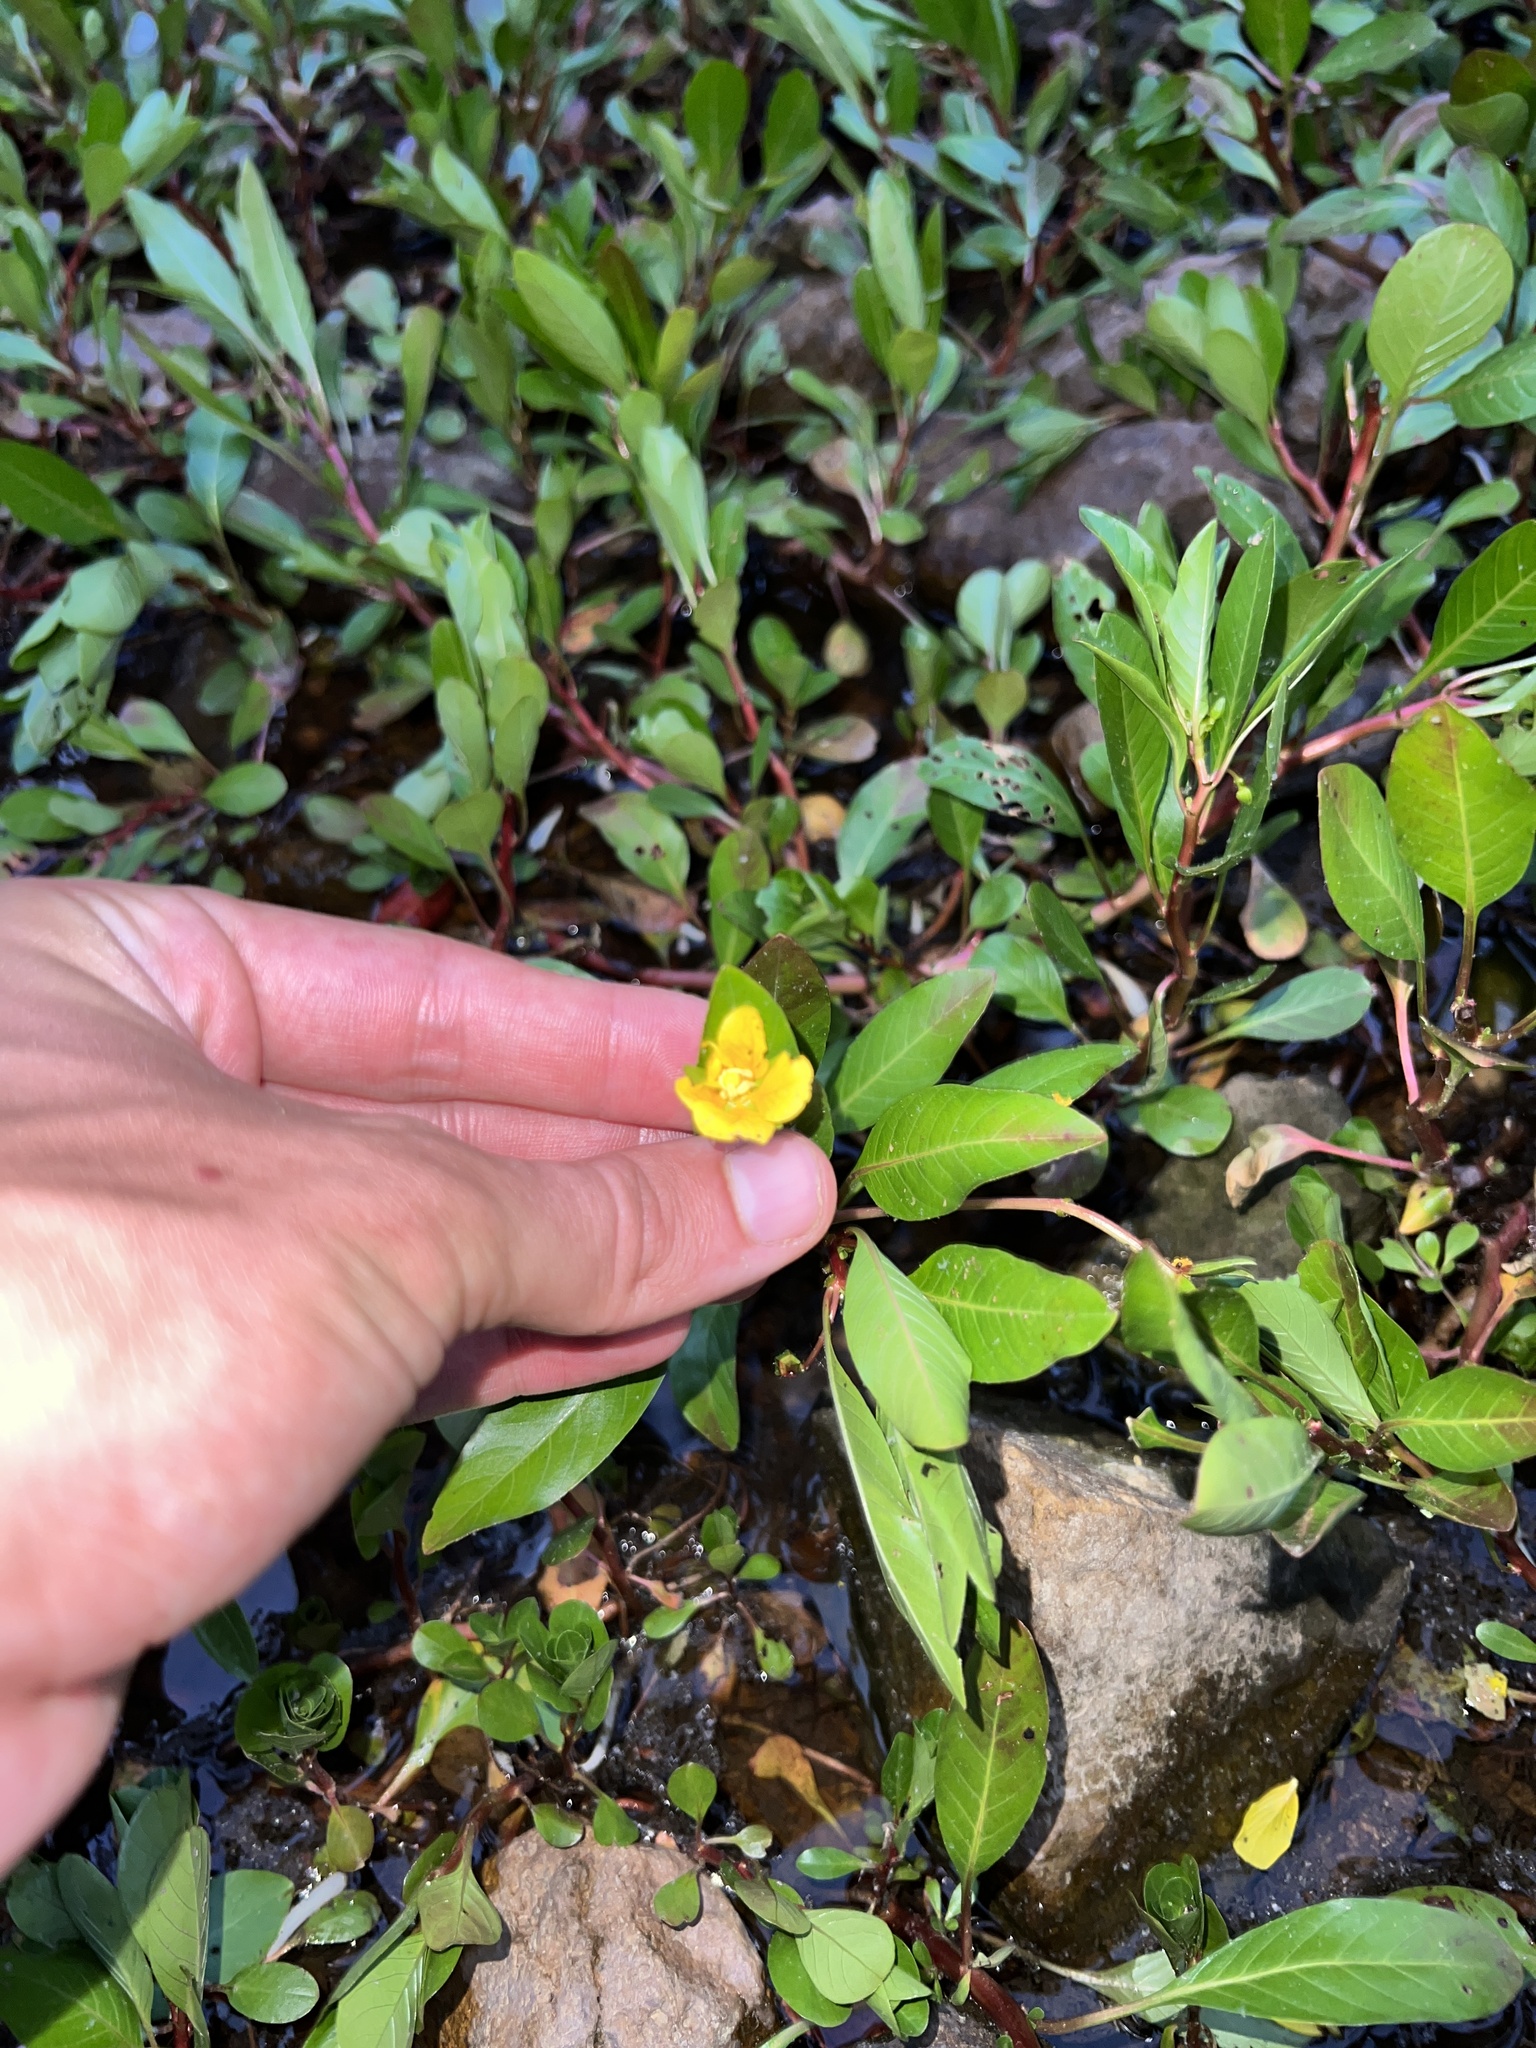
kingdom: Plantae
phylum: Tracheophyta
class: Magnoliopsida
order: Myrtales
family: Onagraceae
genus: Ludwigia
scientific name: Ludwigia peploides
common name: Floating primrose-willow
